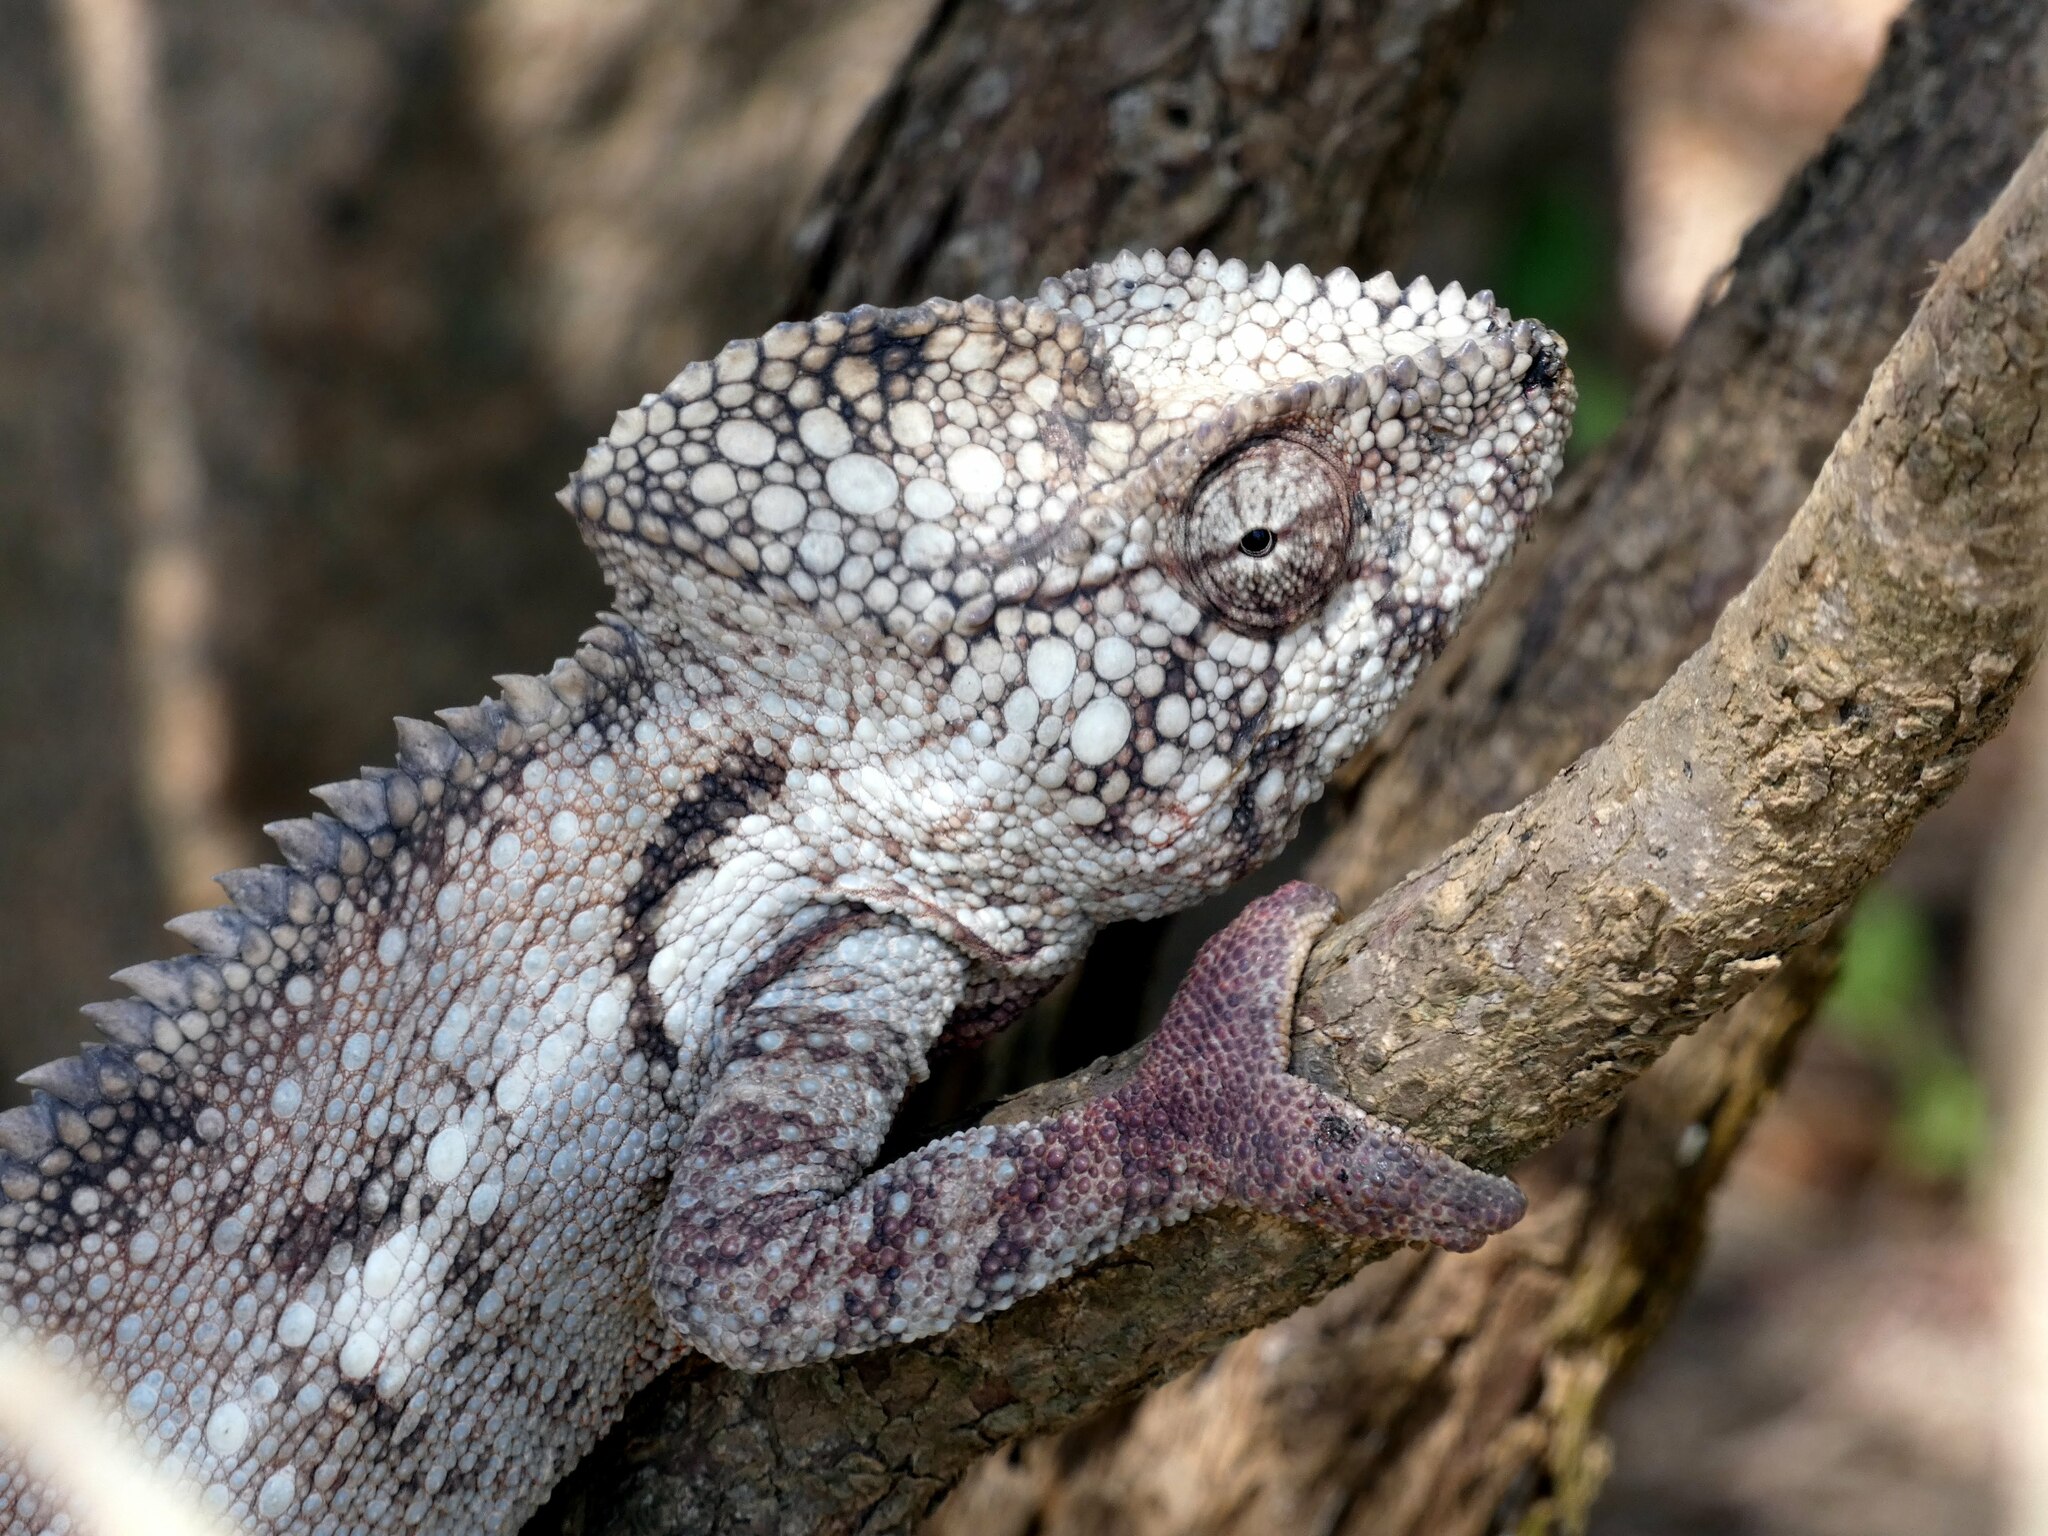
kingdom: Animalia
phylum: Chordata
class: Squamata
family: Chamaeleonidae
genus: Furcifer
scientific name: Furcifer oustaleti
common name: Oustalet's chameleon
